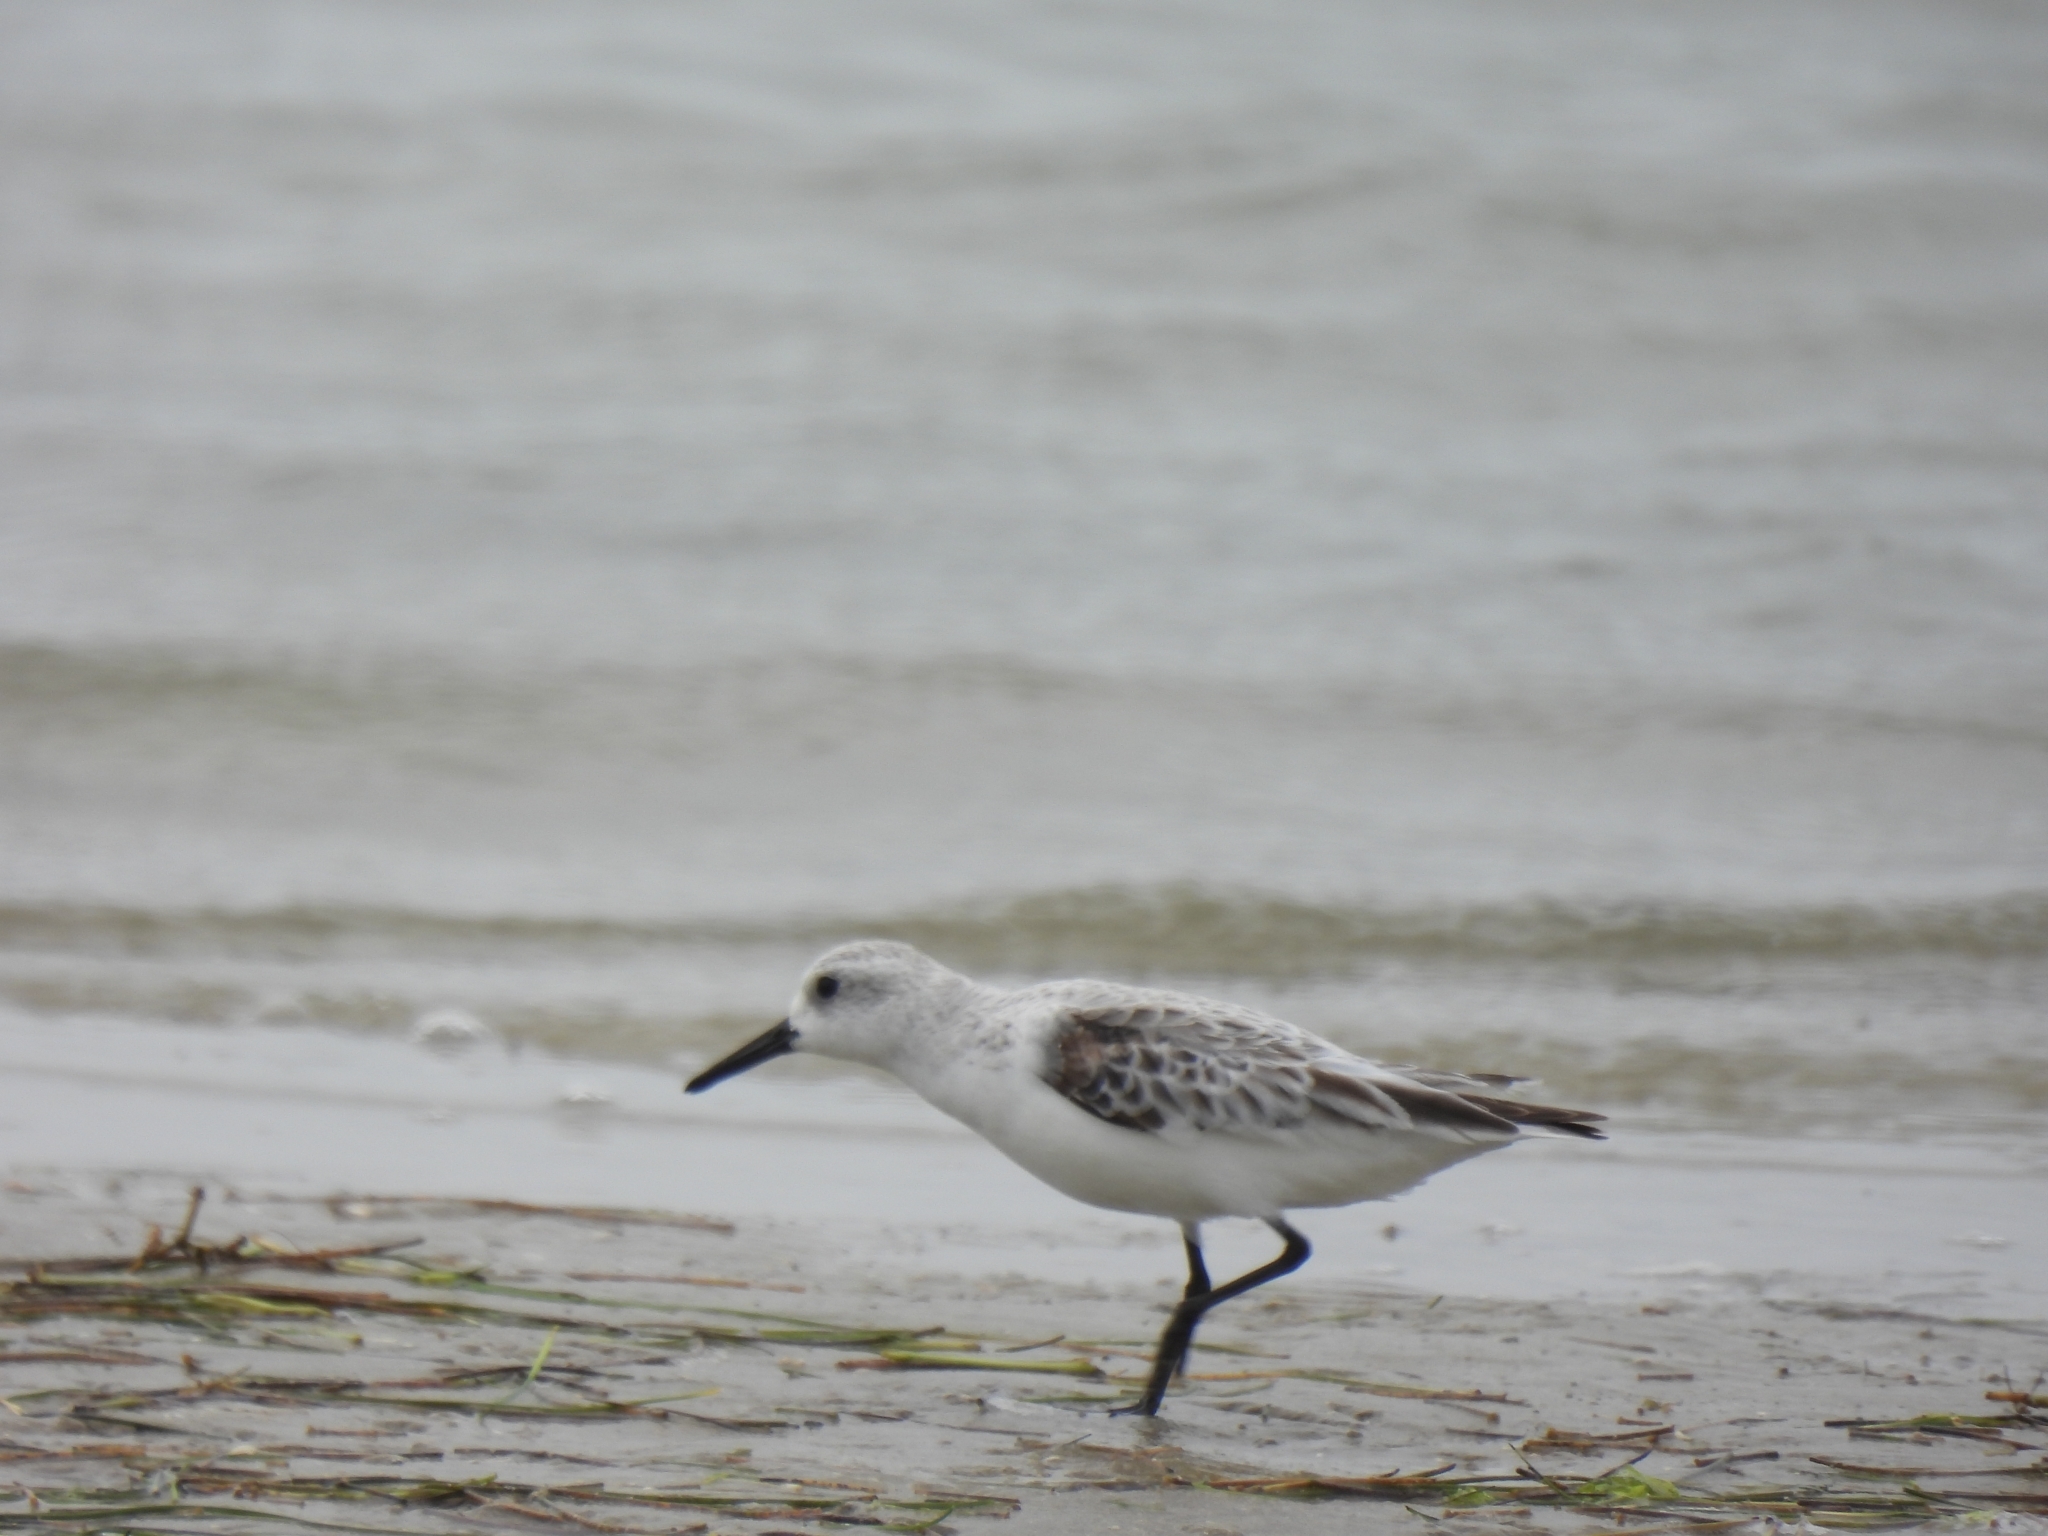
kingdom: Animalia
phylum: Chordata
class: Aves
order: Charadriiformes
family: Scolopacidae
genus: Calidris
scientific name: Calidris alba
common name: Sanderling
